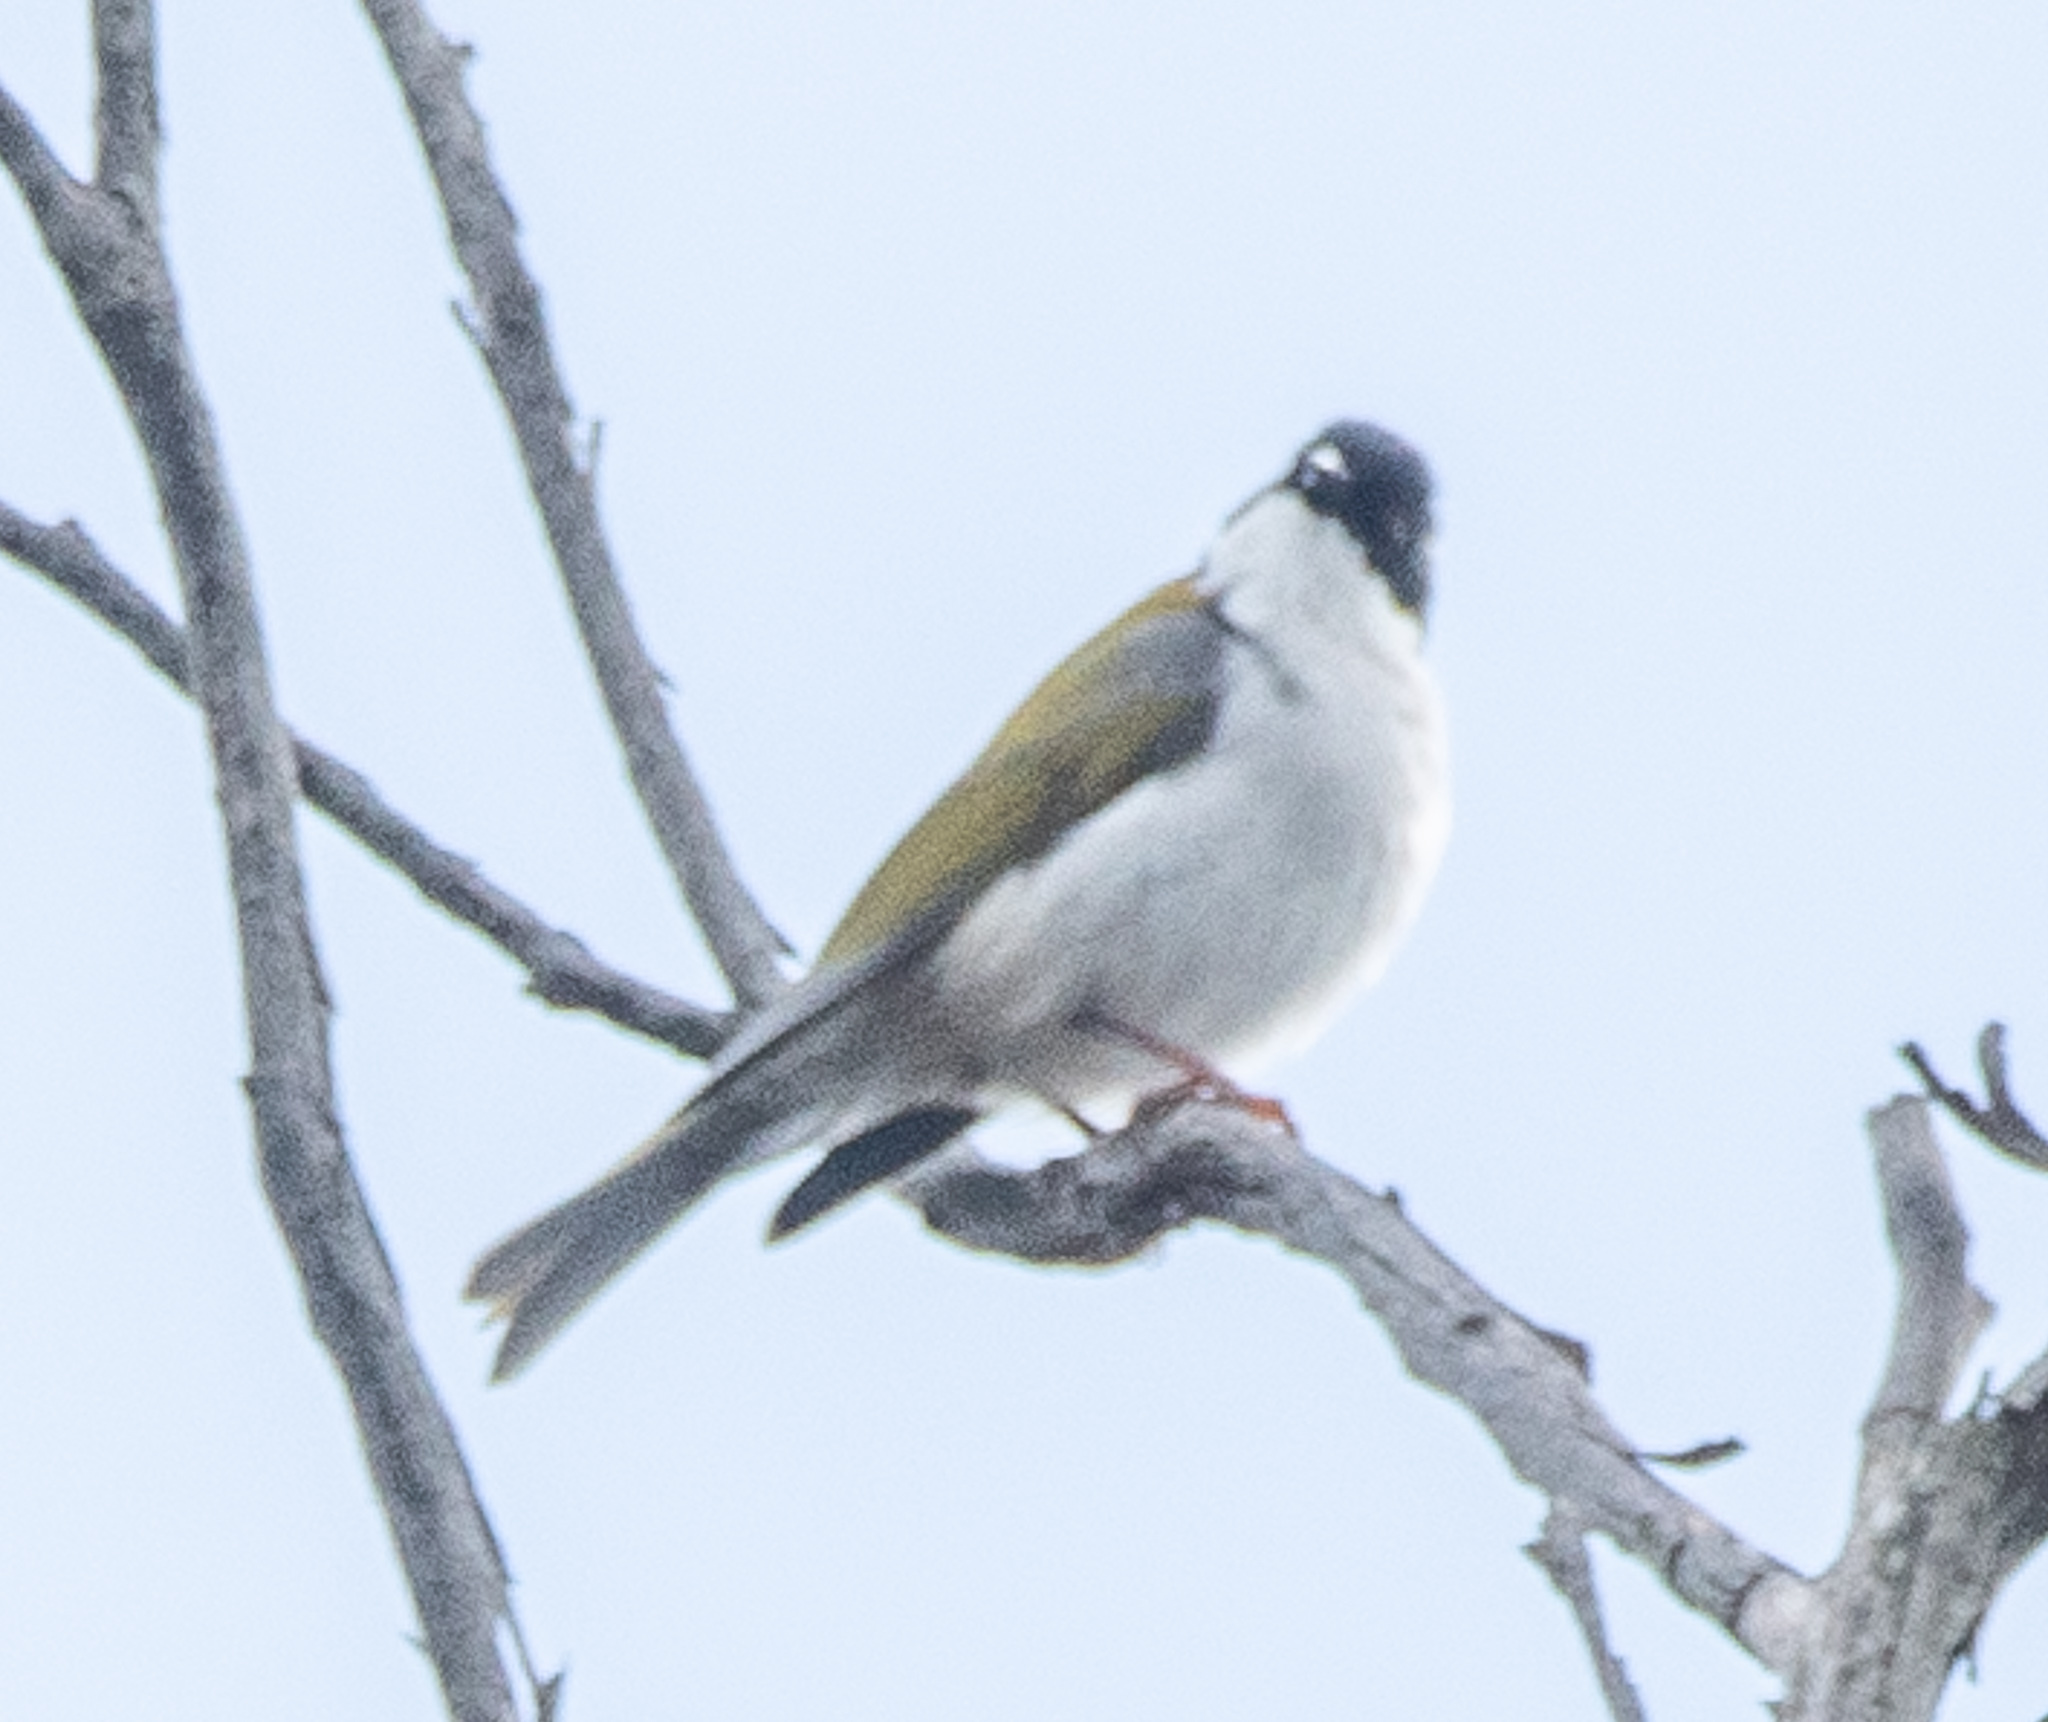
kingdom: Animalia
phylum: Chordata
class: Aves
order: Passeriformes
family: Meliphagidae
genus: Melithreptus
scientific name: Melithreptus lunatus
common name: White-naped honeyeater
